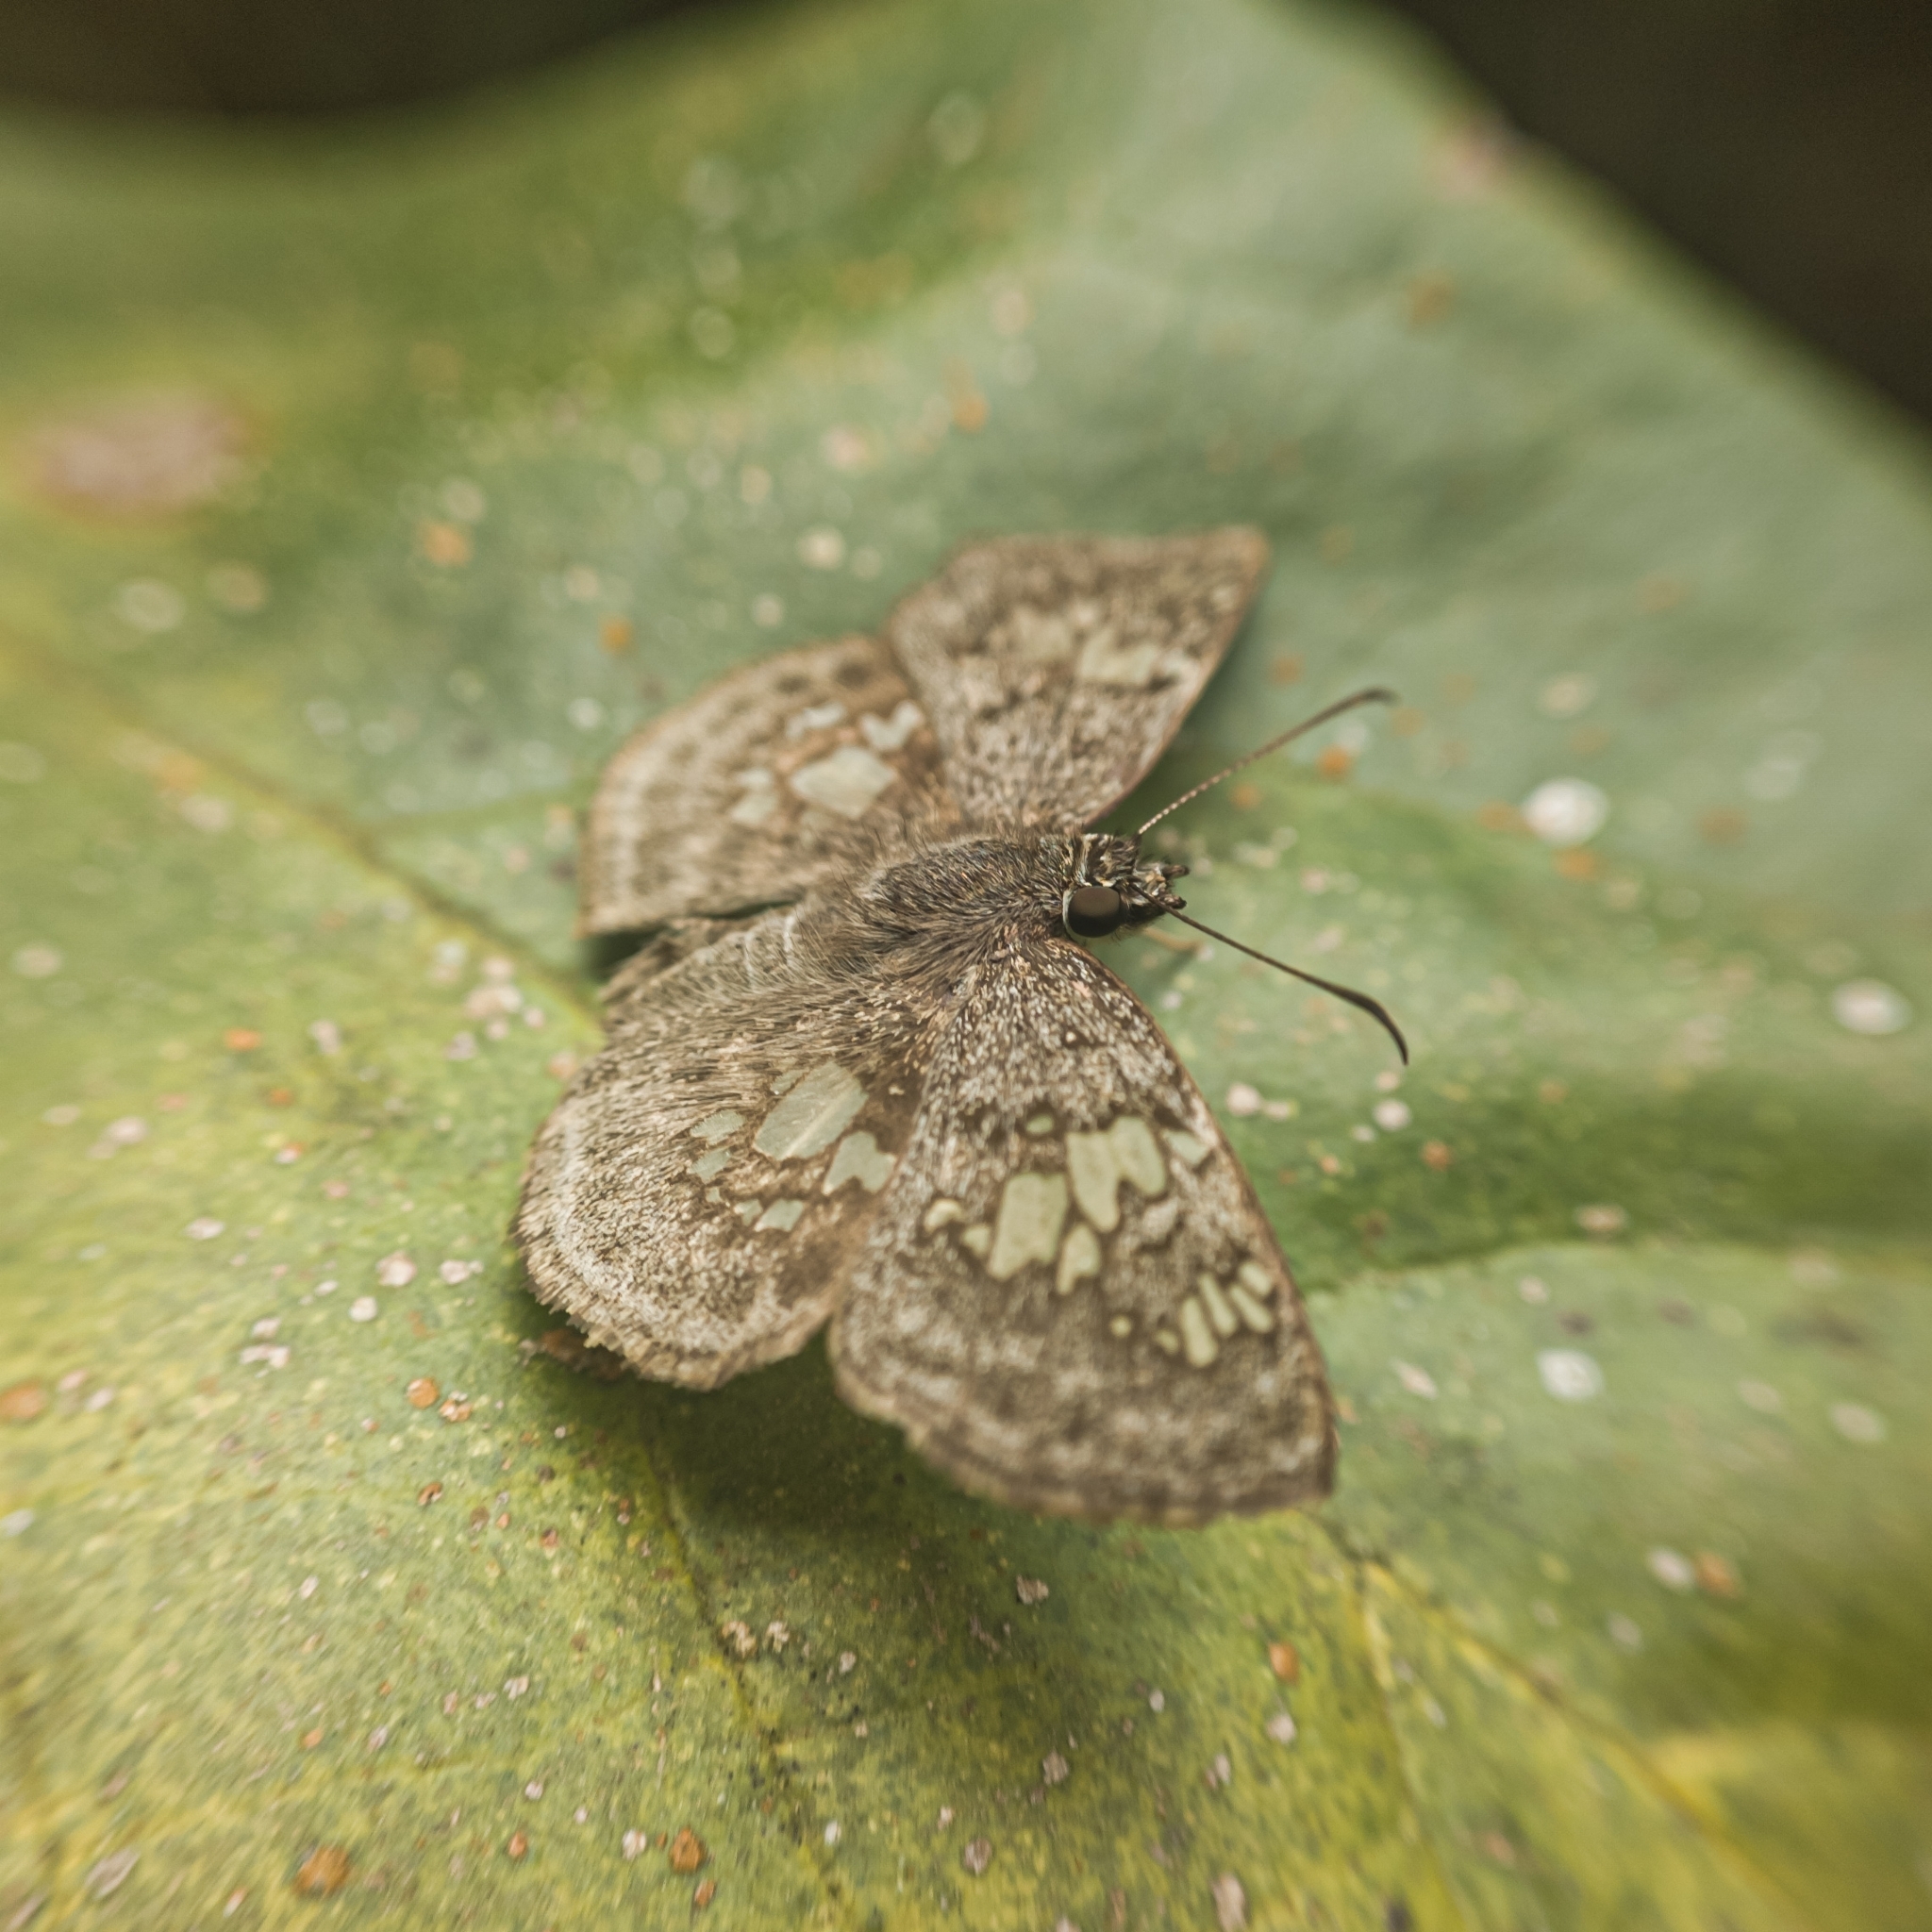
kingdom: Animalia
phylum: Arthropoda
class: Insecta
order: Lepidoptera
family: Hesperiidae
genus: Xenophanes
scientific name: Xenophanes tryxus
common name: Glassy-winged skipper
